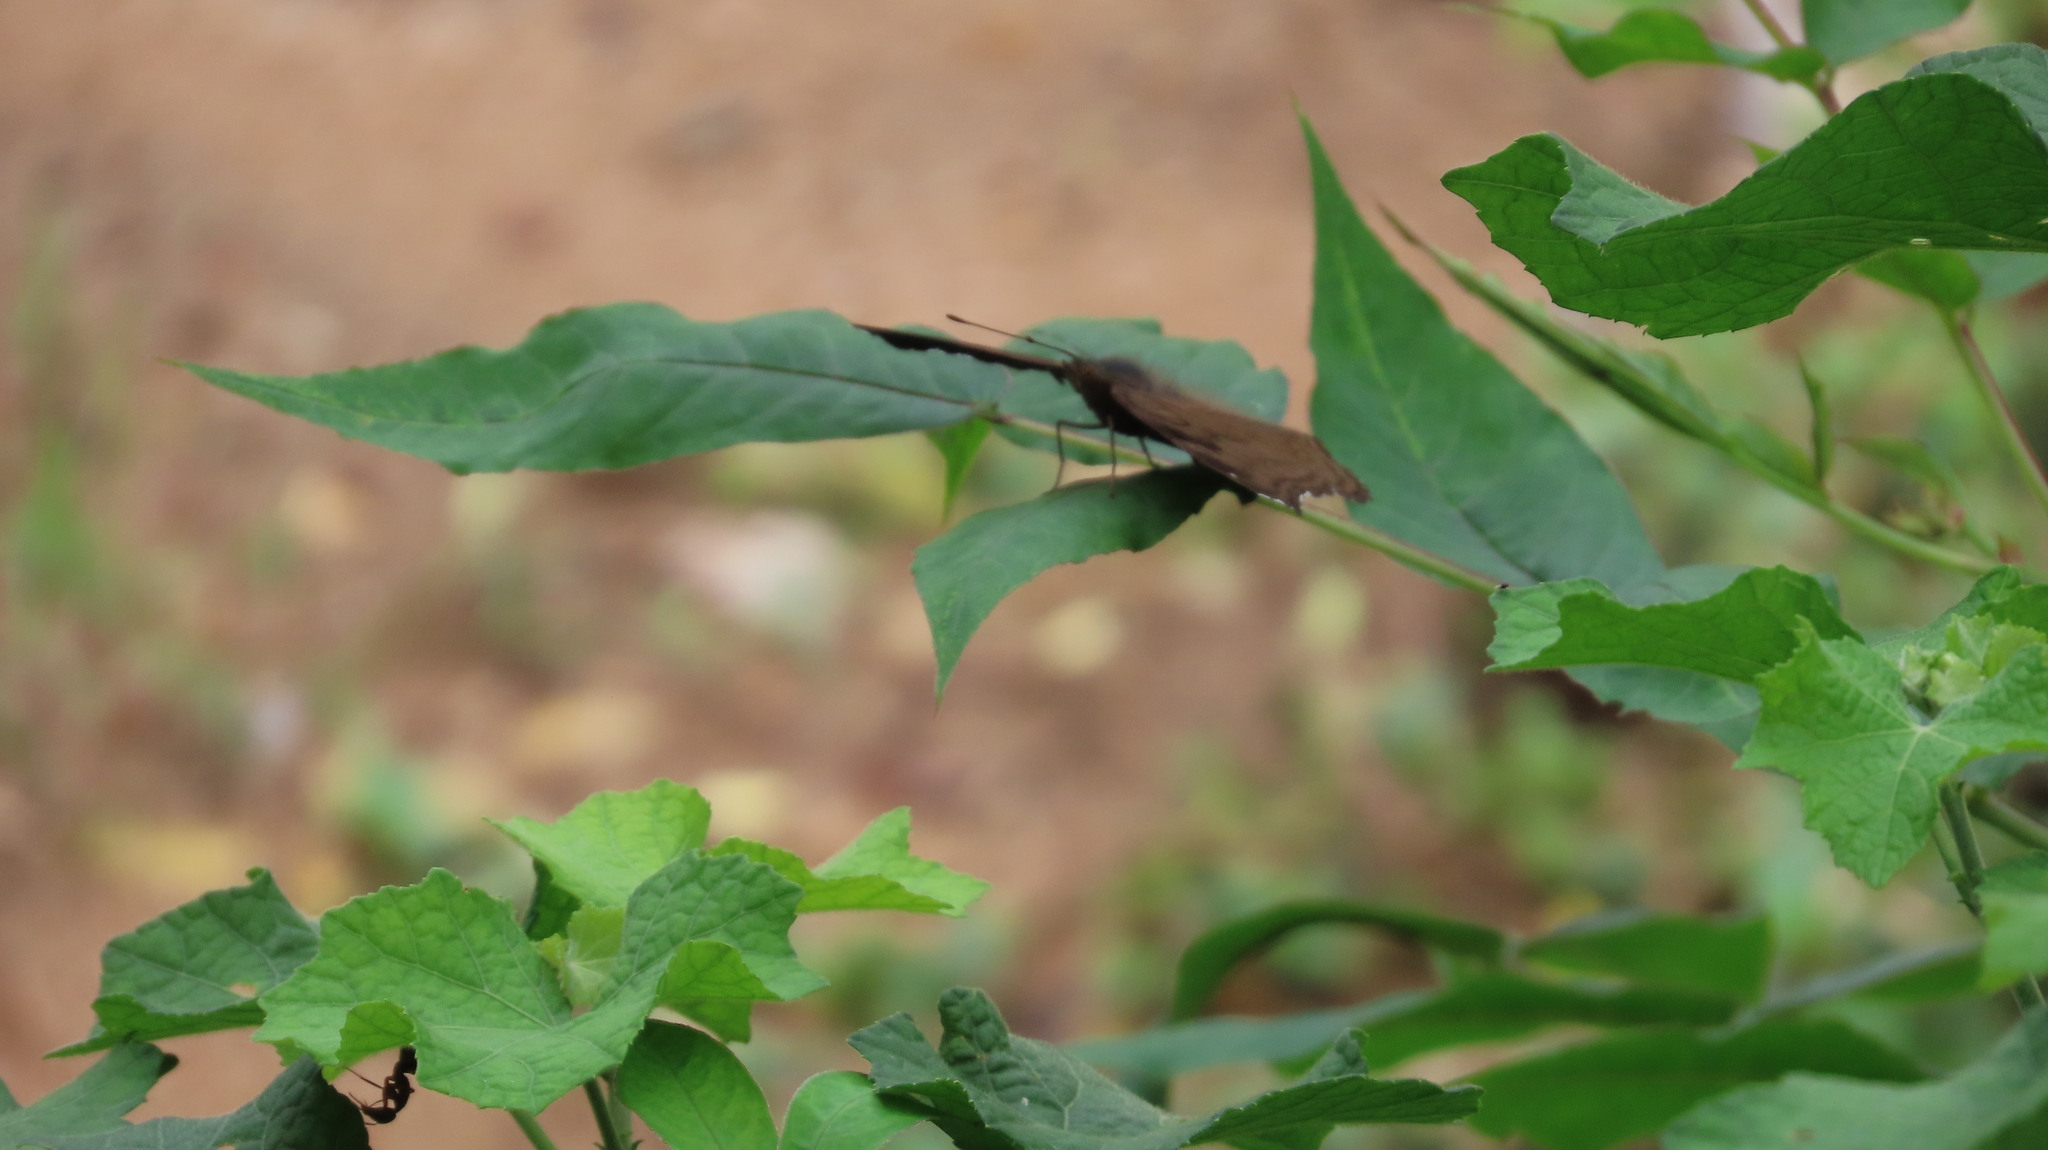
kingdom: Animalia
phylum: Arthropoda
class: Insecta
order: Lepidoptera
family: Nymphalidae
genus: Junonia
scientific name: Junonia iphita
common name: Chocolate pansy
